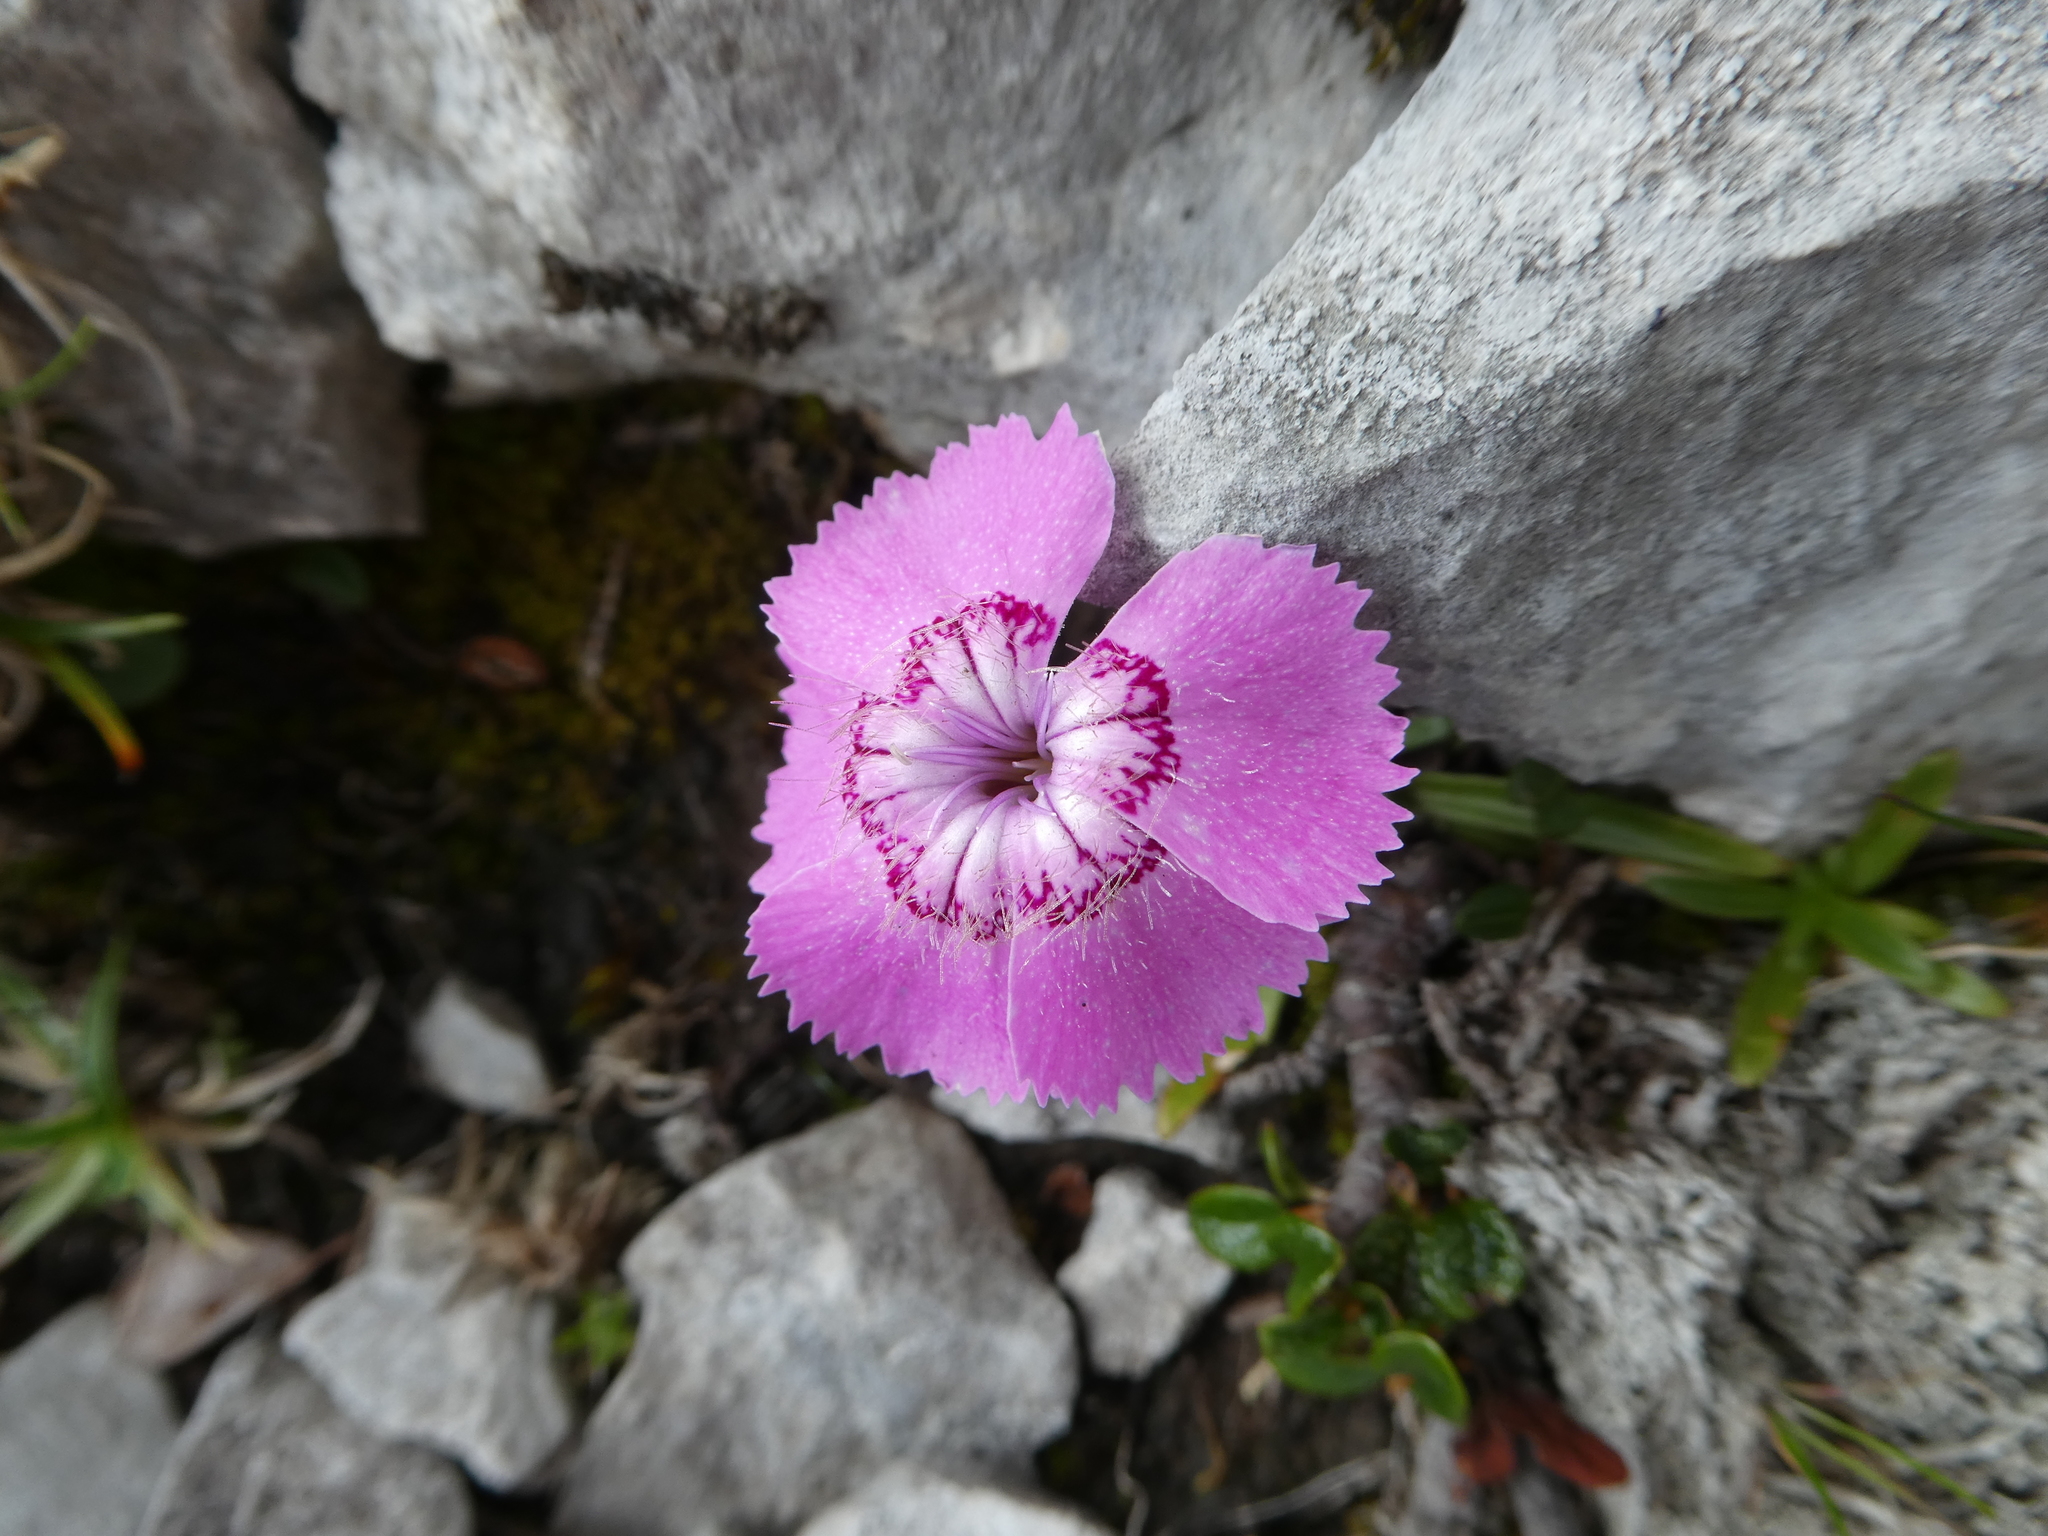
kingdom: Plantae
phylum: Tracheophyta
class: Magnoliopsida
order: Caryophyllales
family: Caryophyllaceae
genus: Dianthus
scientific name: Dianthus alpinus
